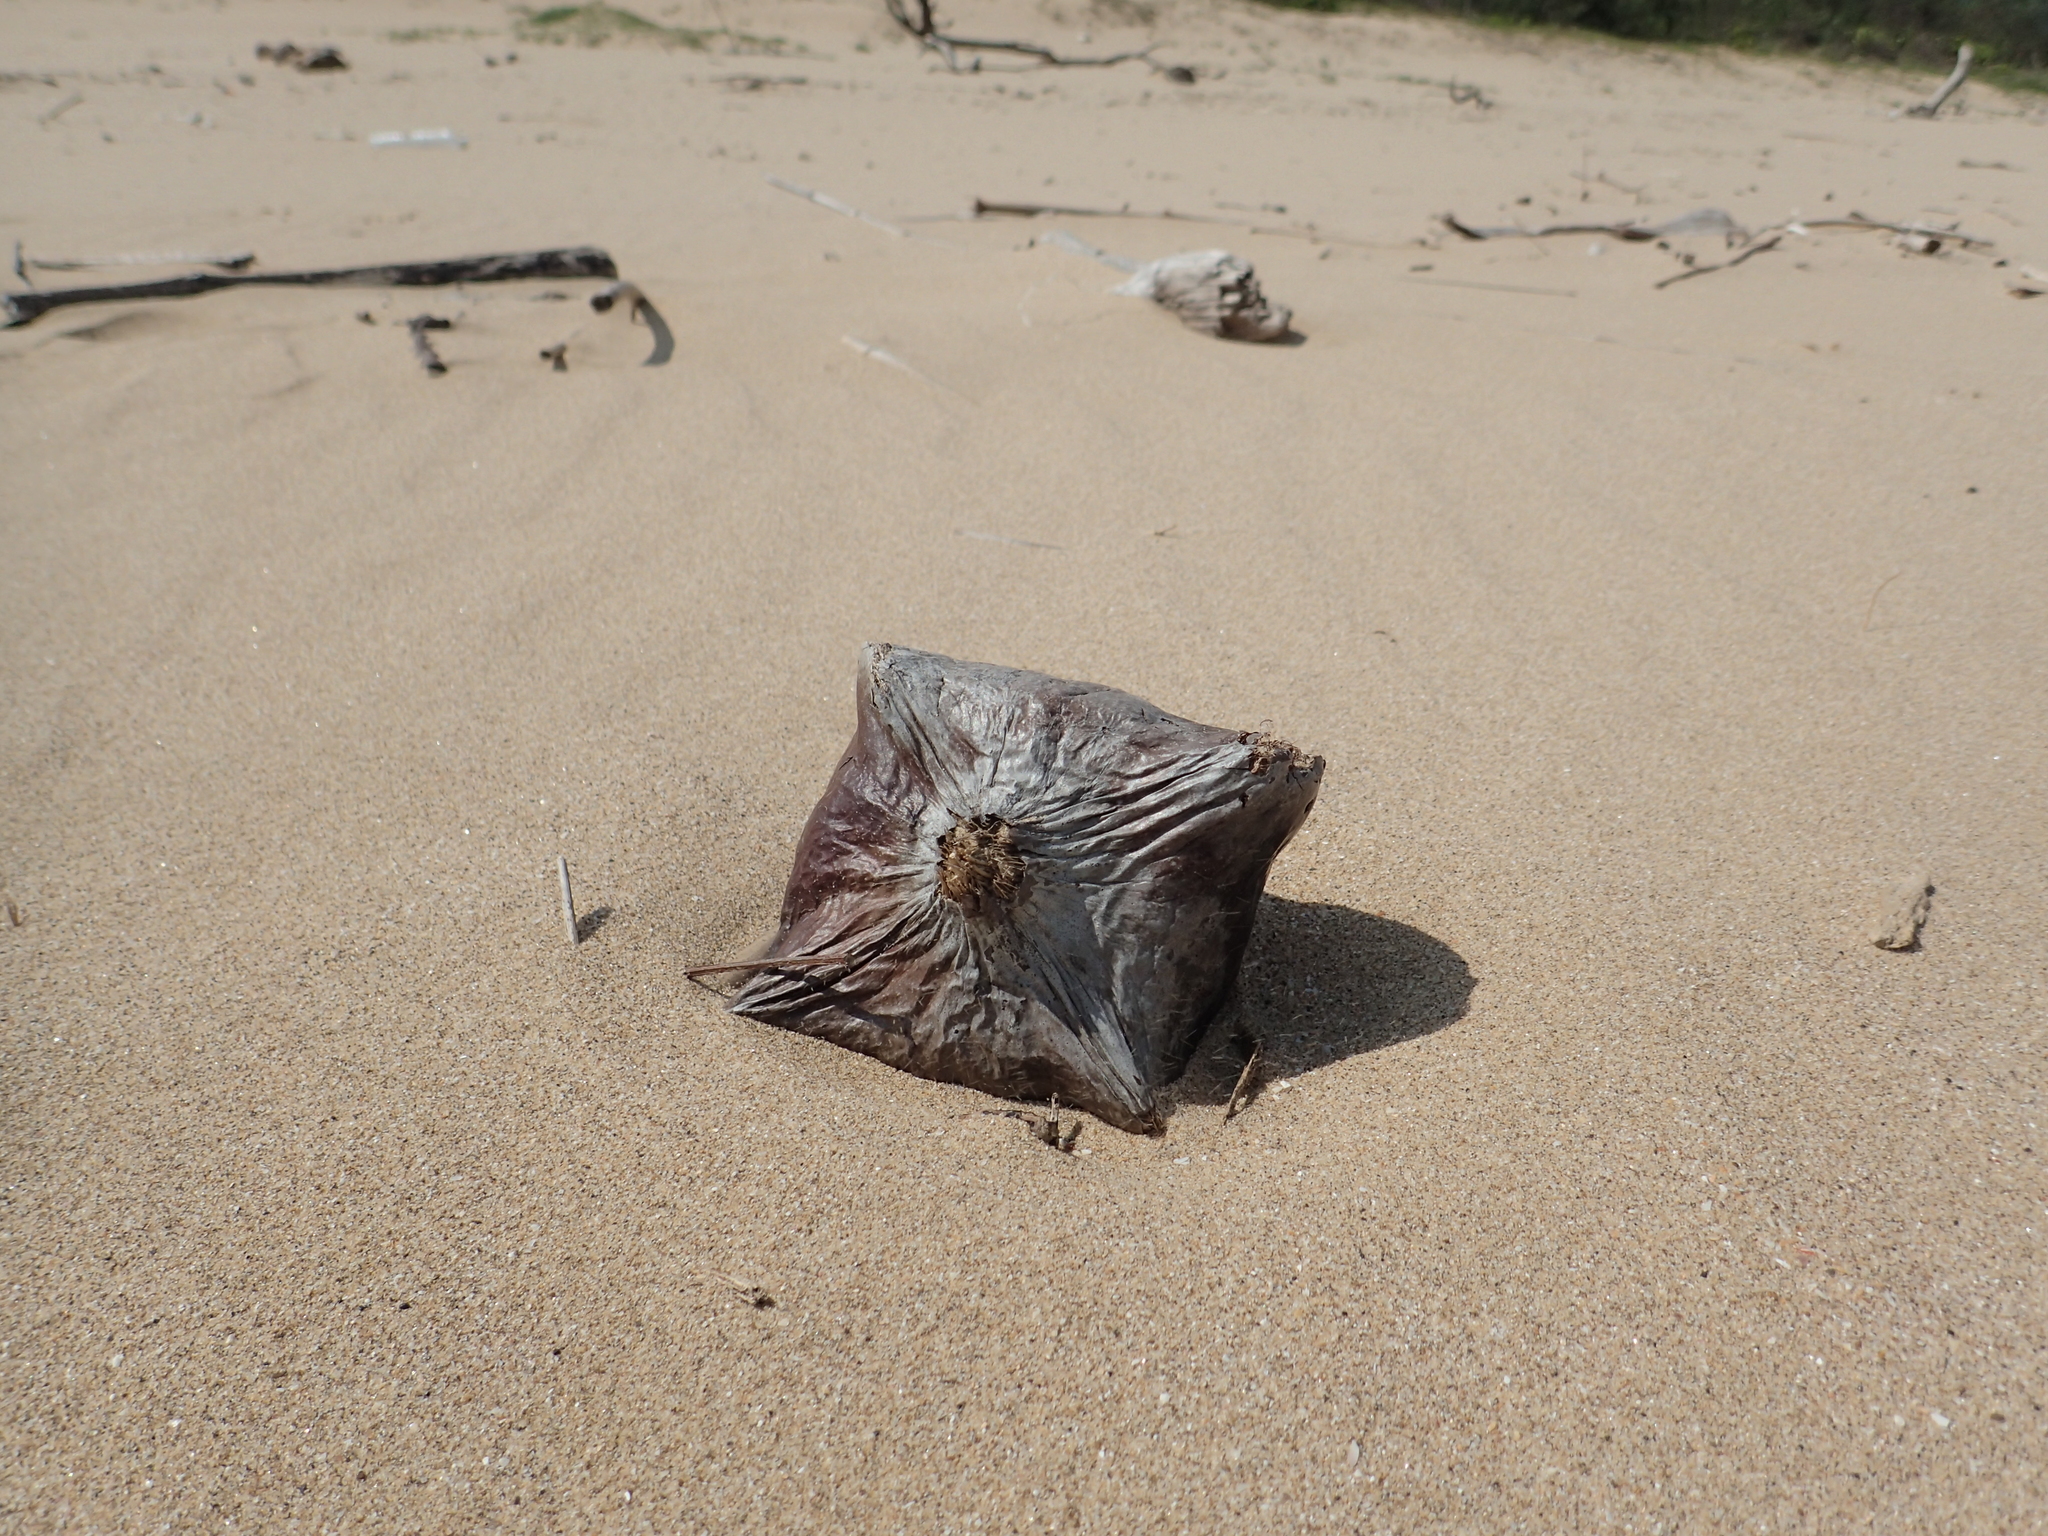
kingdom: Plantae
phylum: Tracheophyta
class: Magnoliopsida
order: Ericales
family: Lecythidaceae
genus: Barringtonia
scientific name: Barringtonia asiatica
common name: Mango-pine
